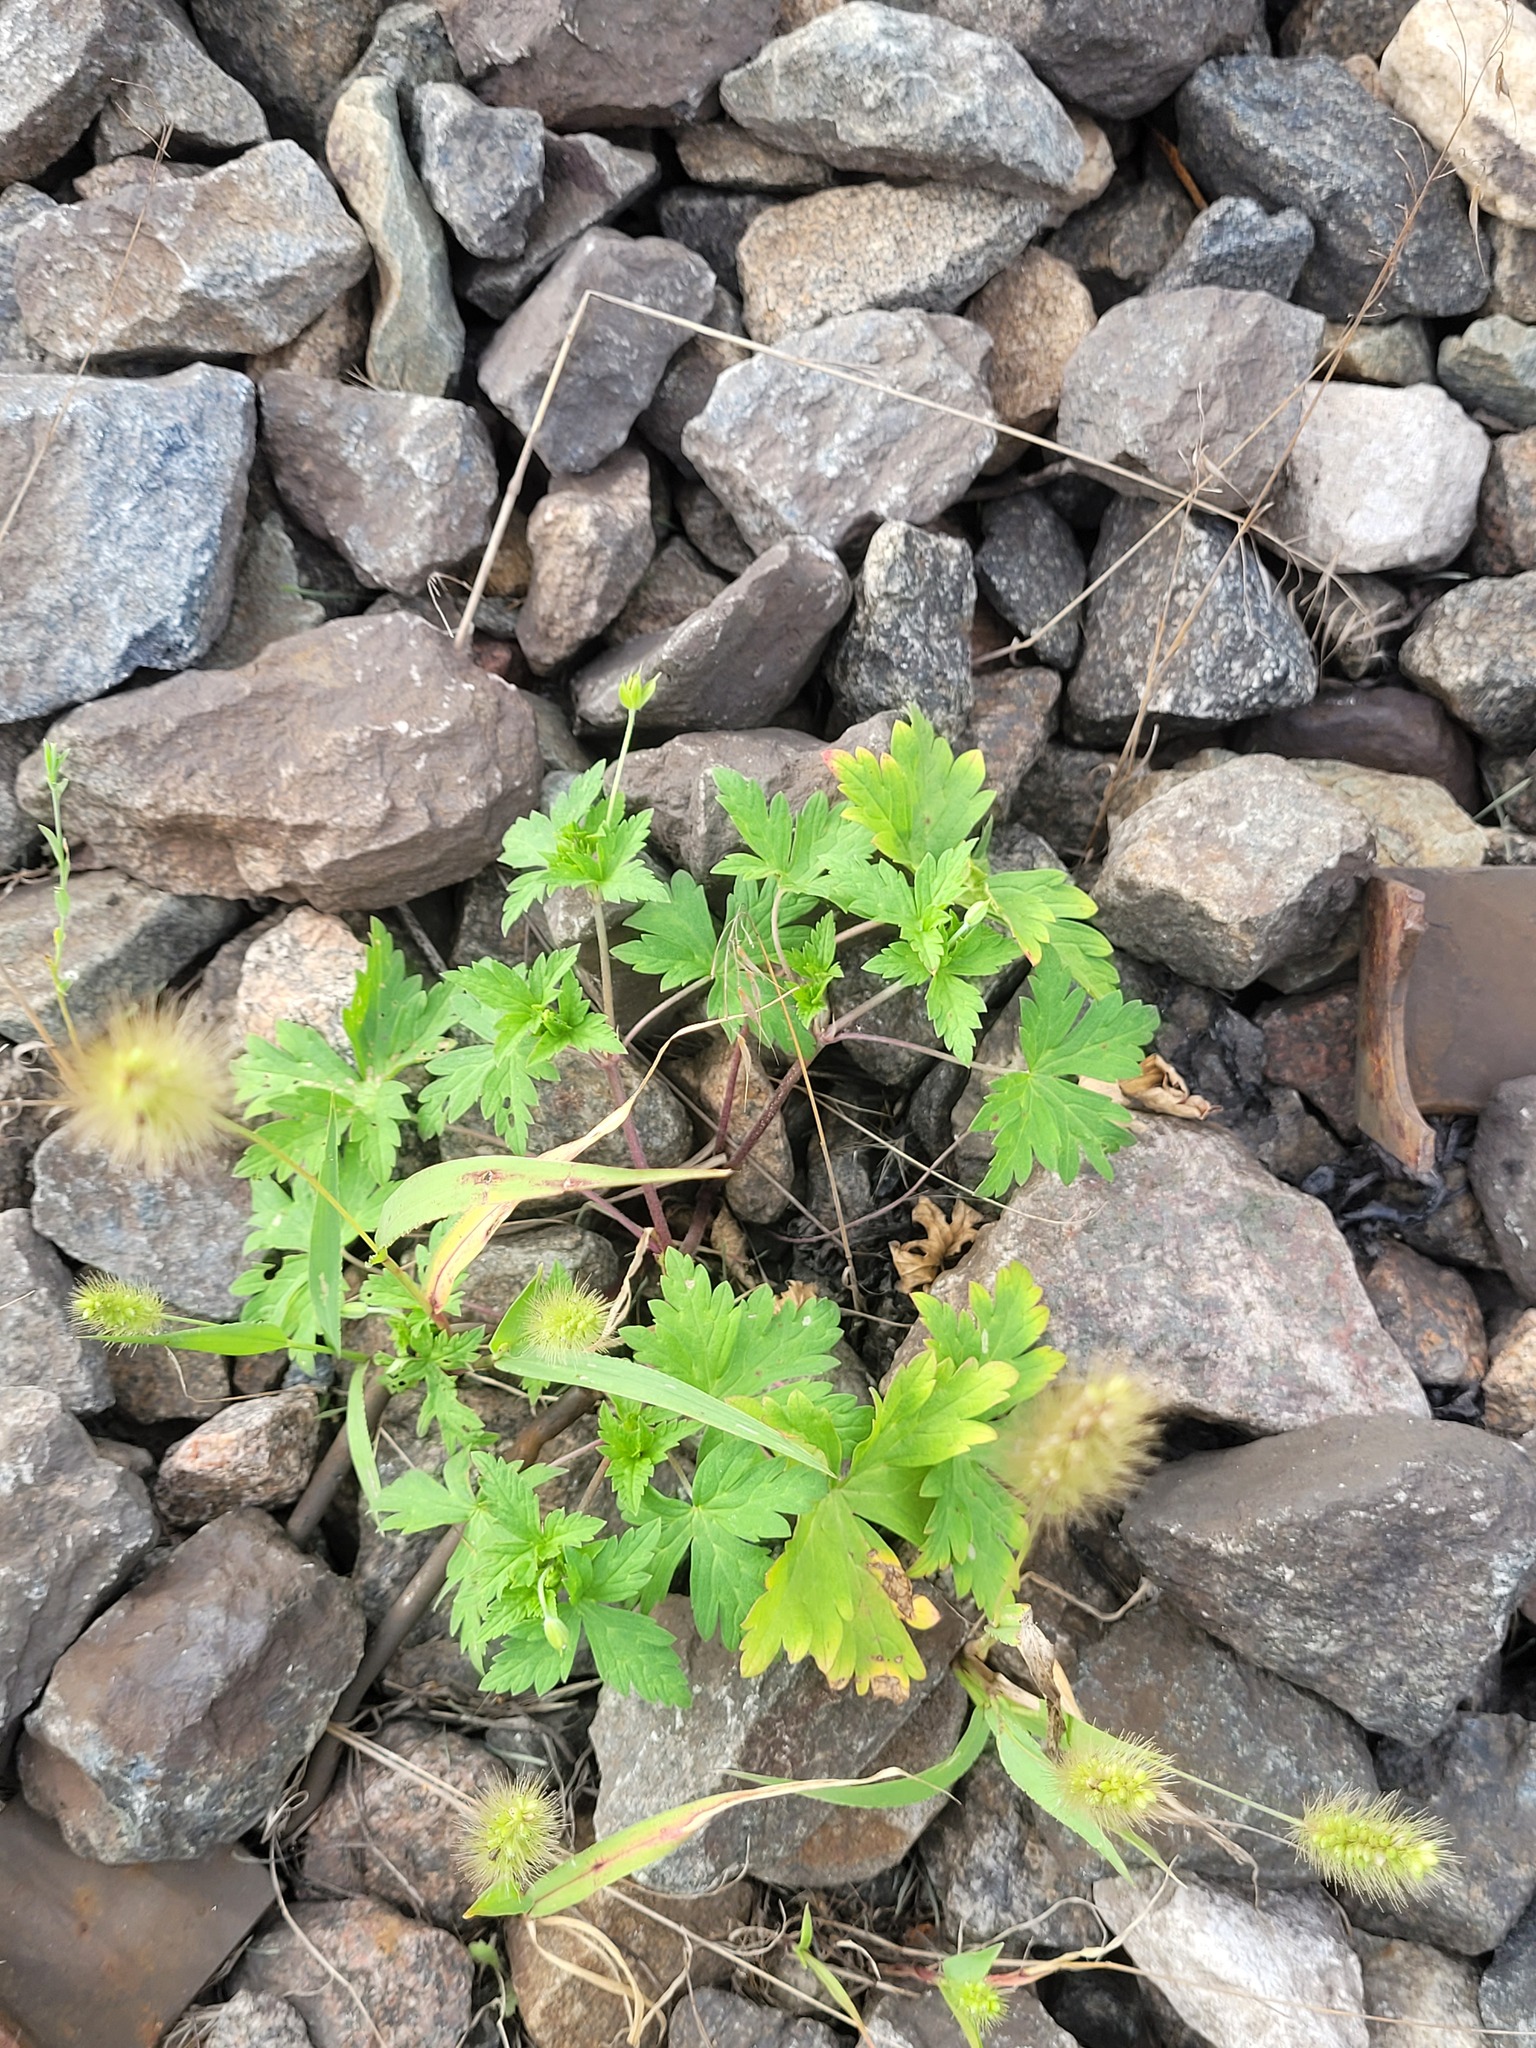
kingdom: Plantae
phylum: Tracheophyta
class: Magnoliopsida
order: Geraniales
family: Geraniaceae
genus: Geranium
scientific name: Geranium sibiricum
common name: Siberian crane's-bill
